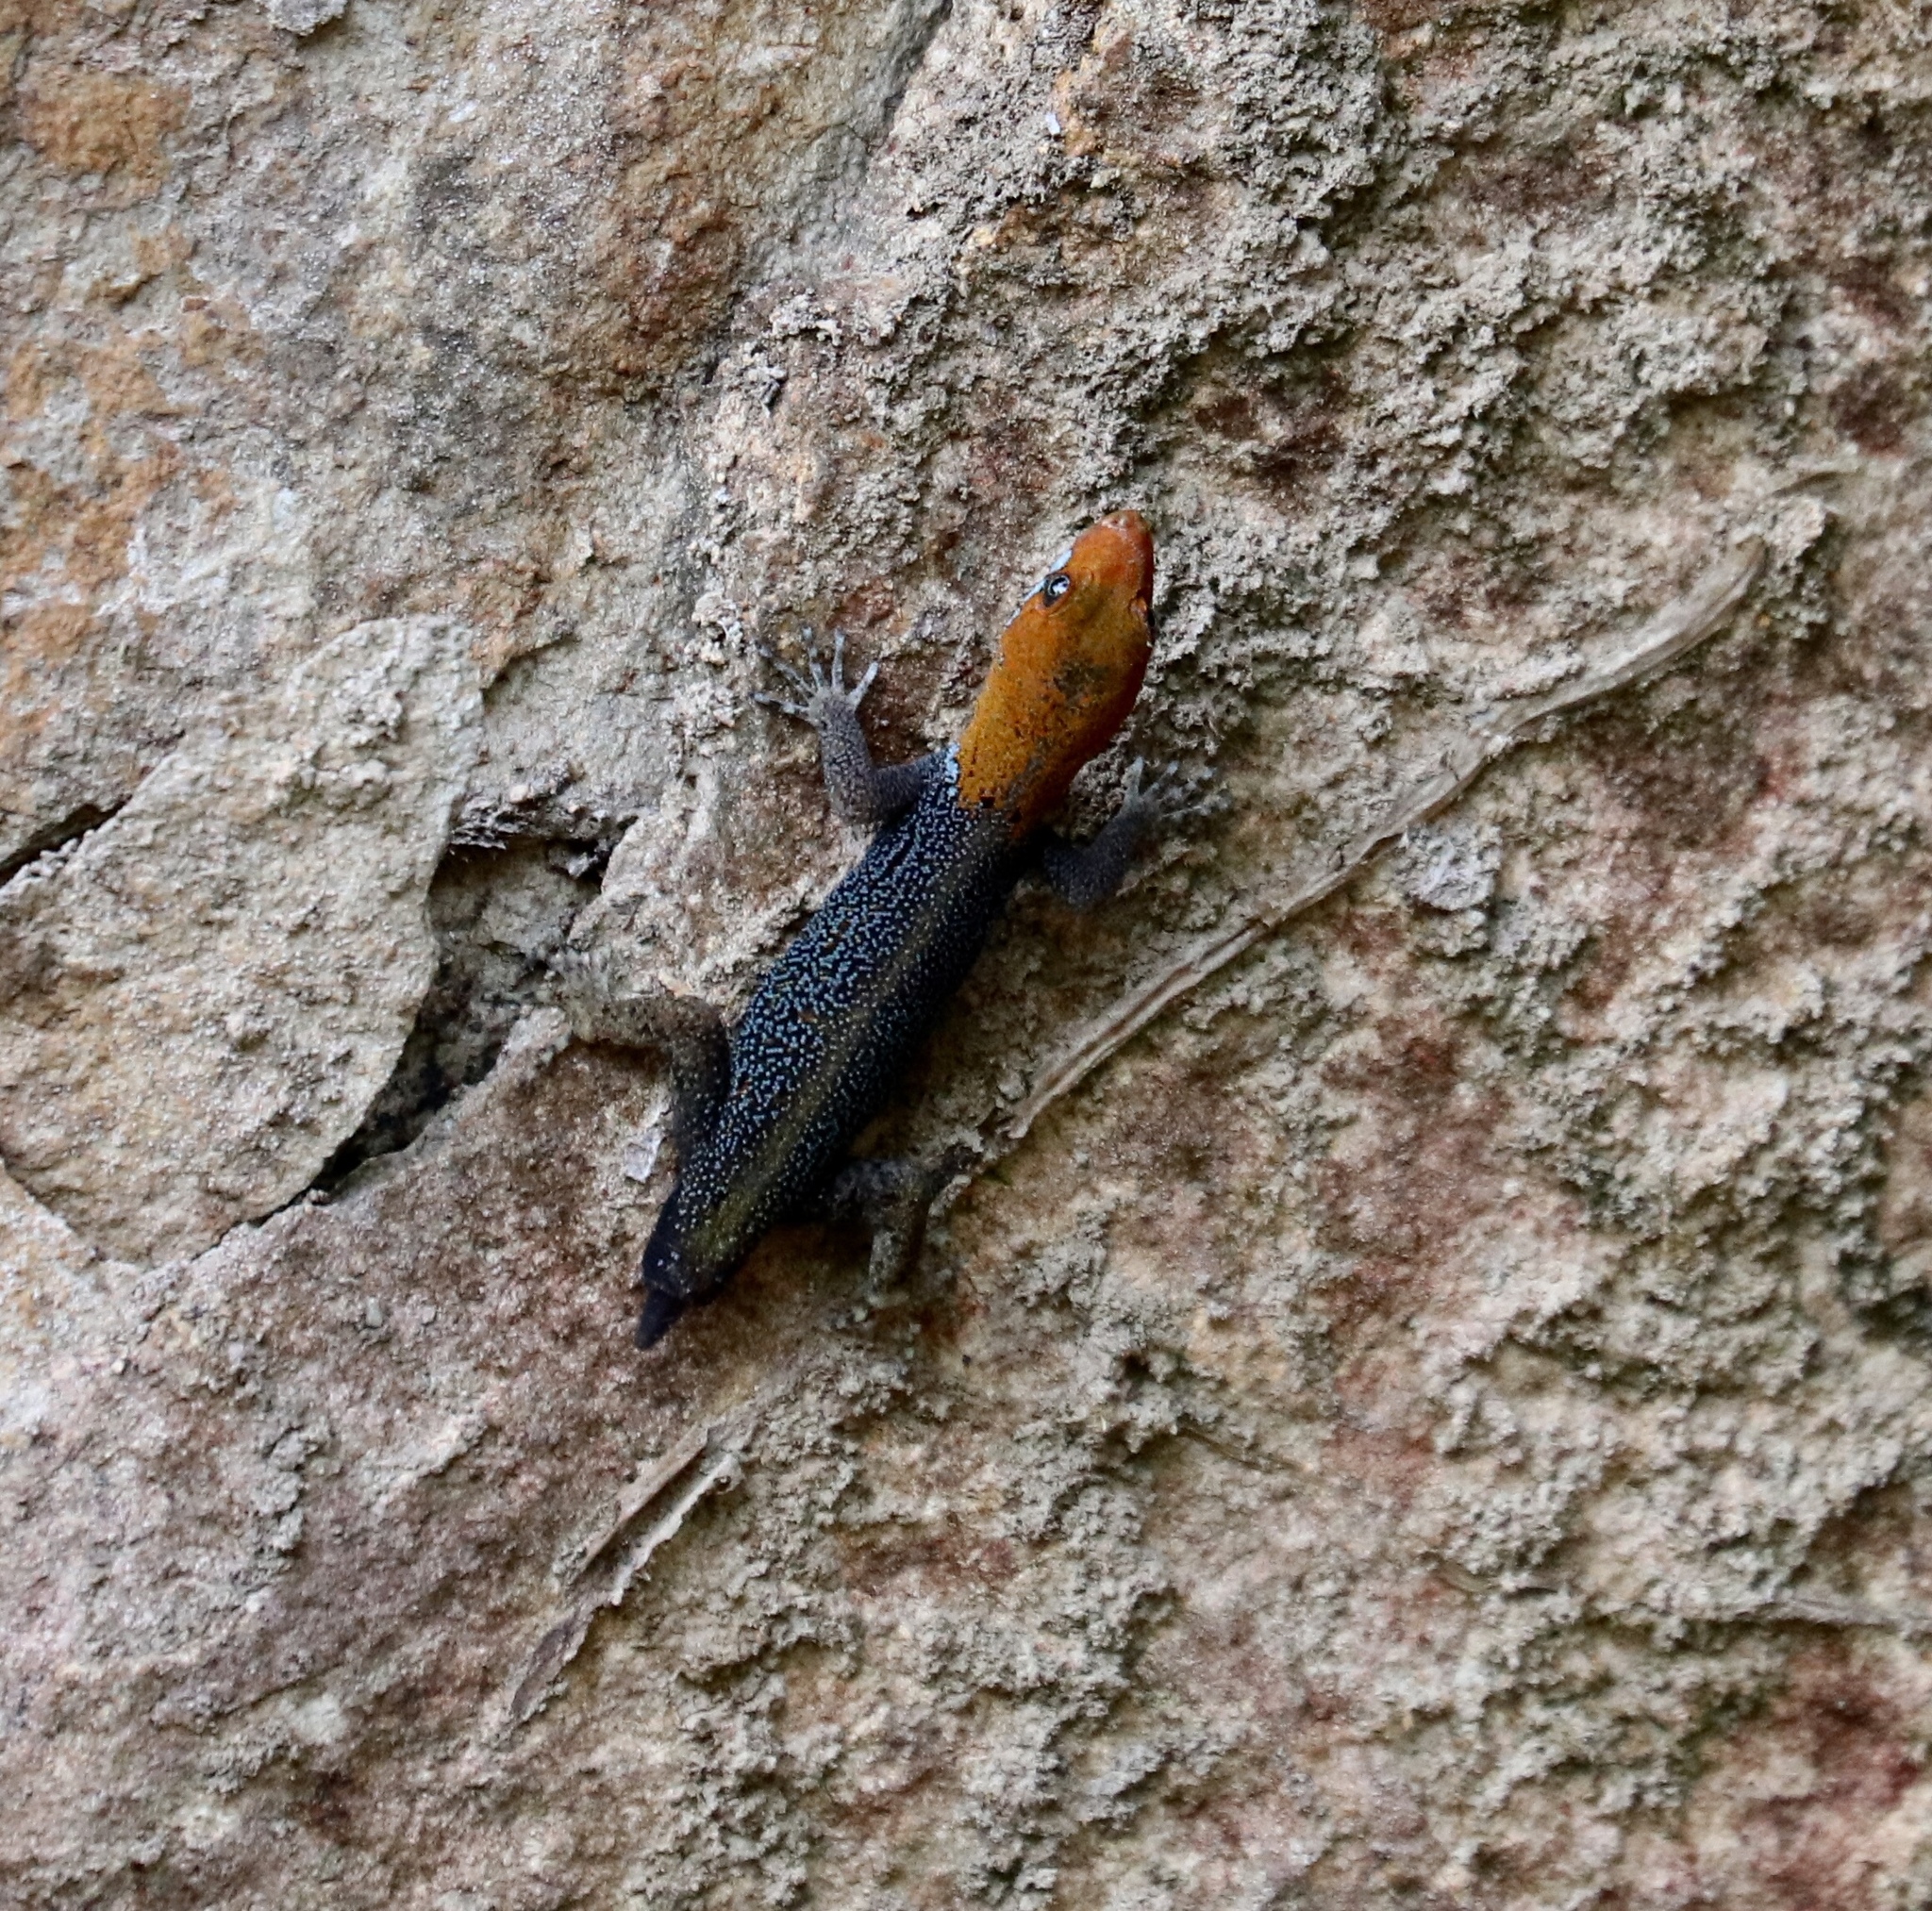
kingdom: Animalia
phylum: Chordata
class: Squamata
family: Sphaerodactylidae
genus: Gonatodes
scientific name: Gonatodes albogularis
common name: Yellow-headed gecko
